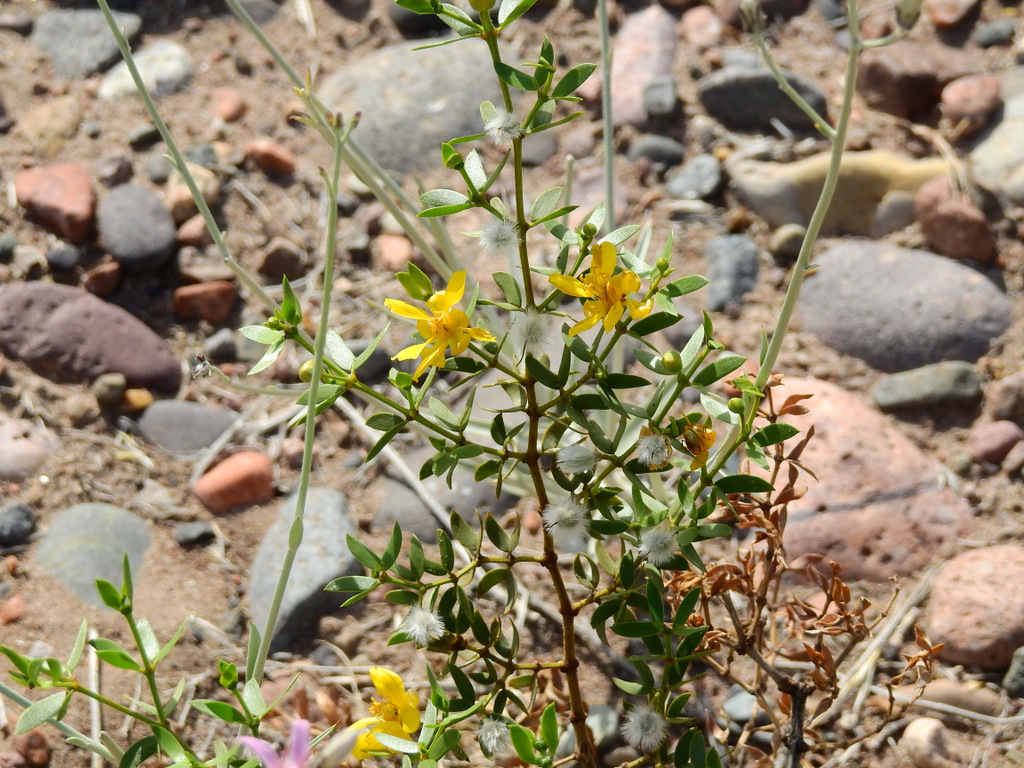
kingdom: Plantae
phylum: Tracheophyta
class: Magnoliopsida
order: Zygophyllales
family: Zygophyllaceae
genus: Larrea
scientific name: Larrea divaricata
